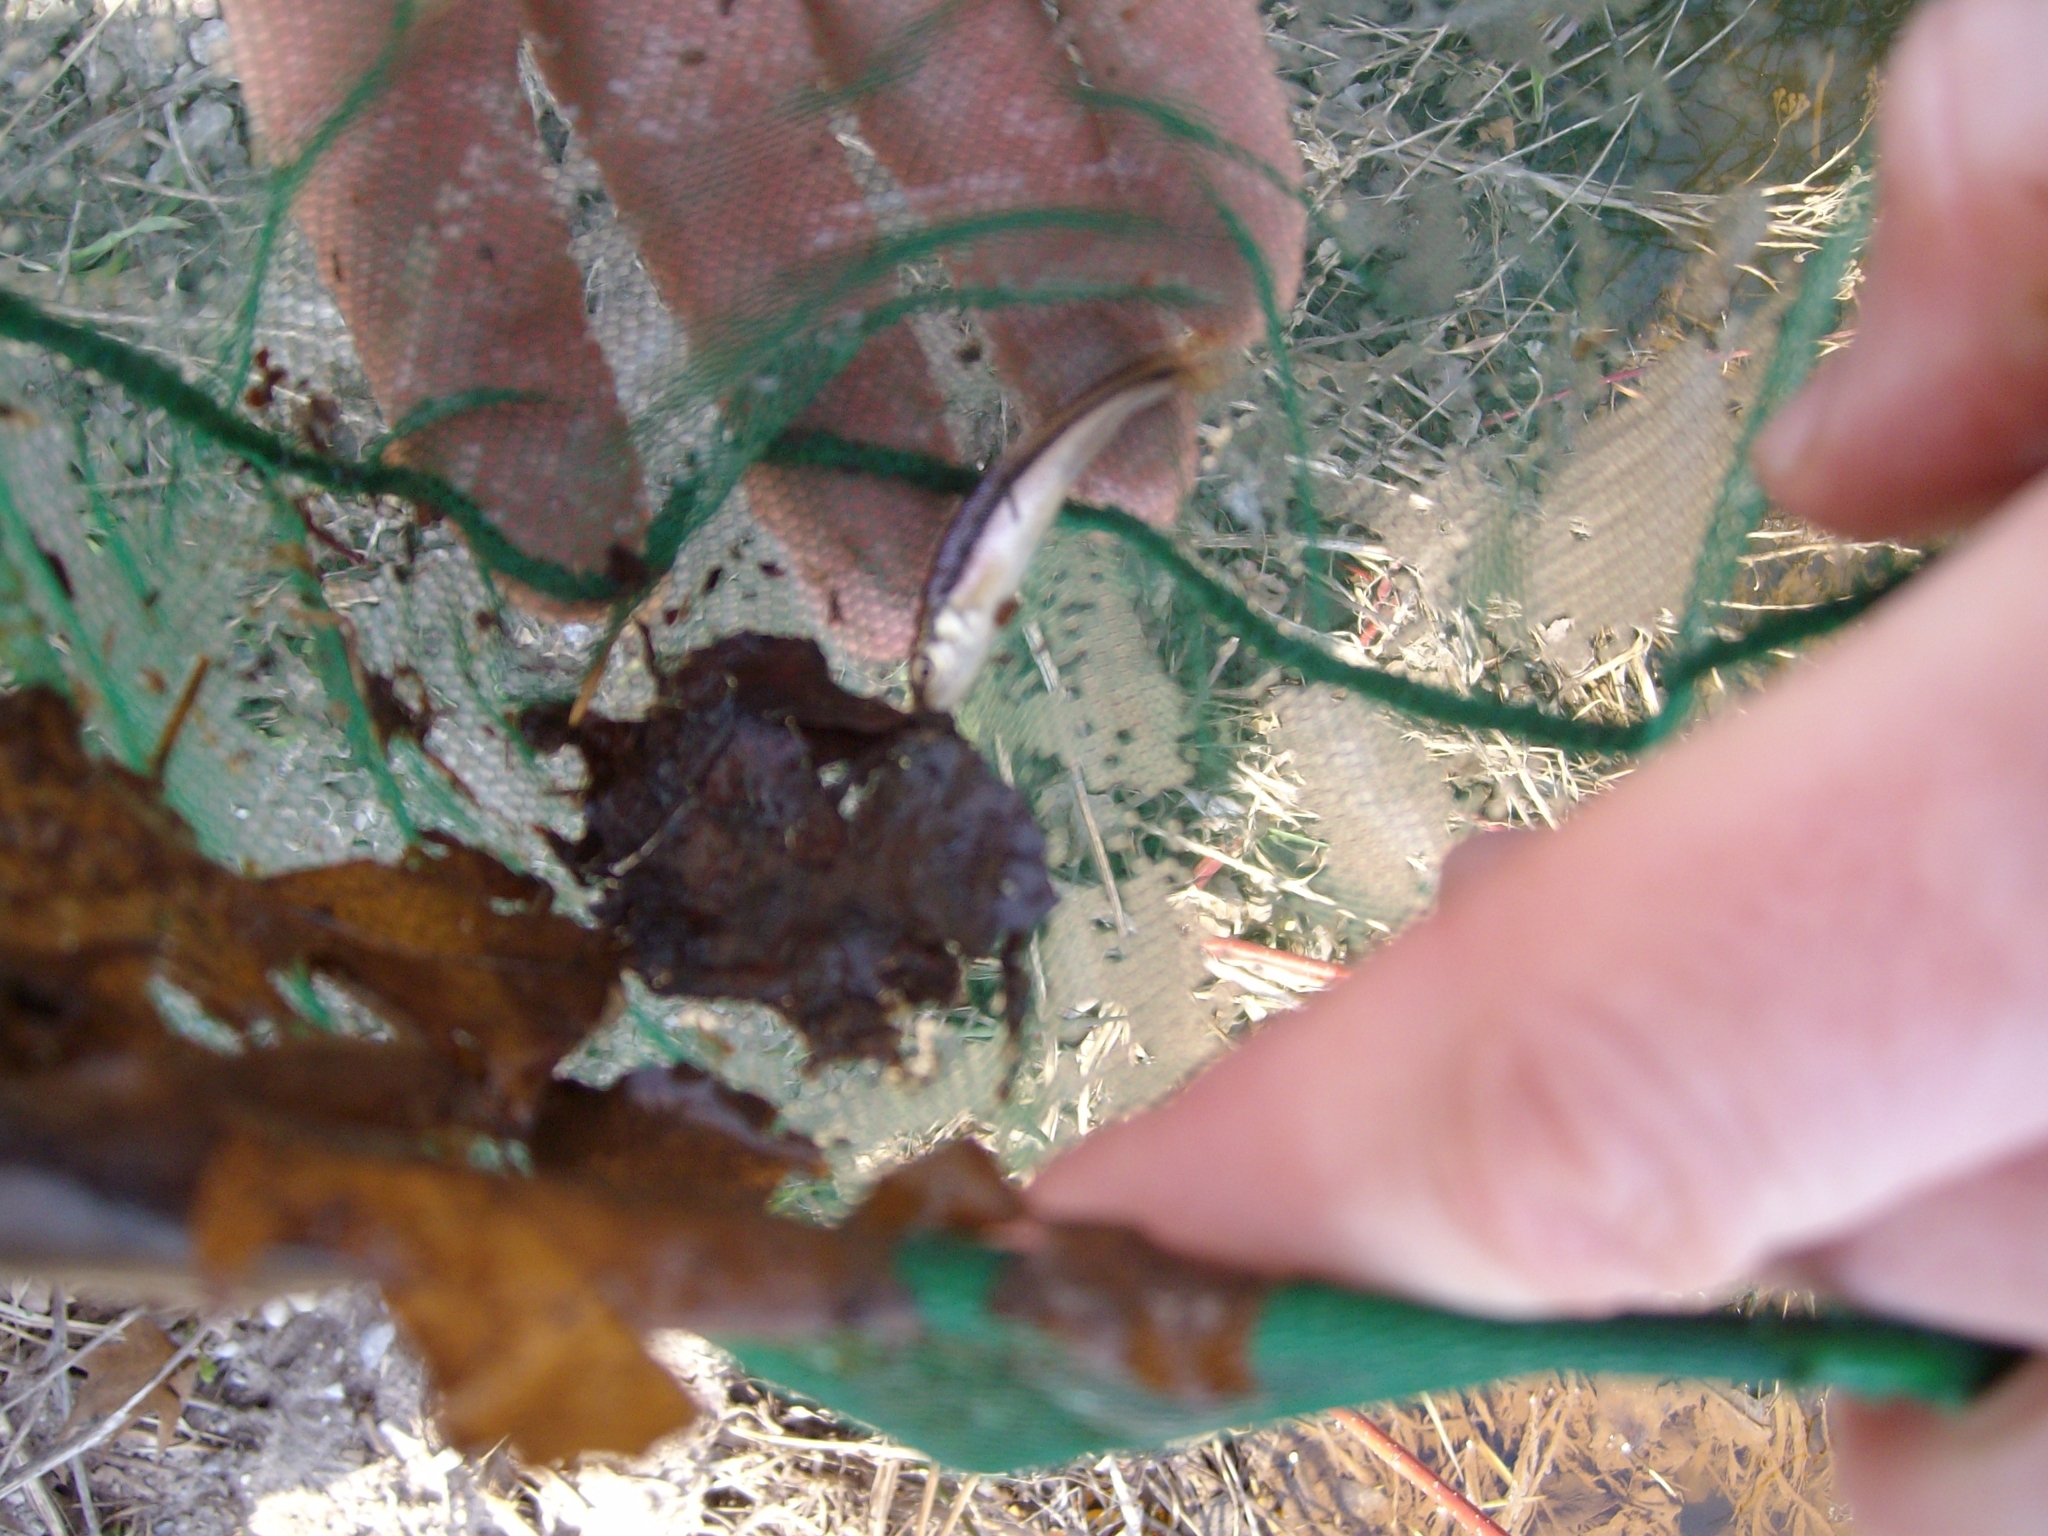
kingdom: Animalia
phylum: Chordata
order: Cypriniformes
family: Cyprinidae
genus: Semotilus
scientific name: Semotilus atromaculatus
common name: Creek chub
